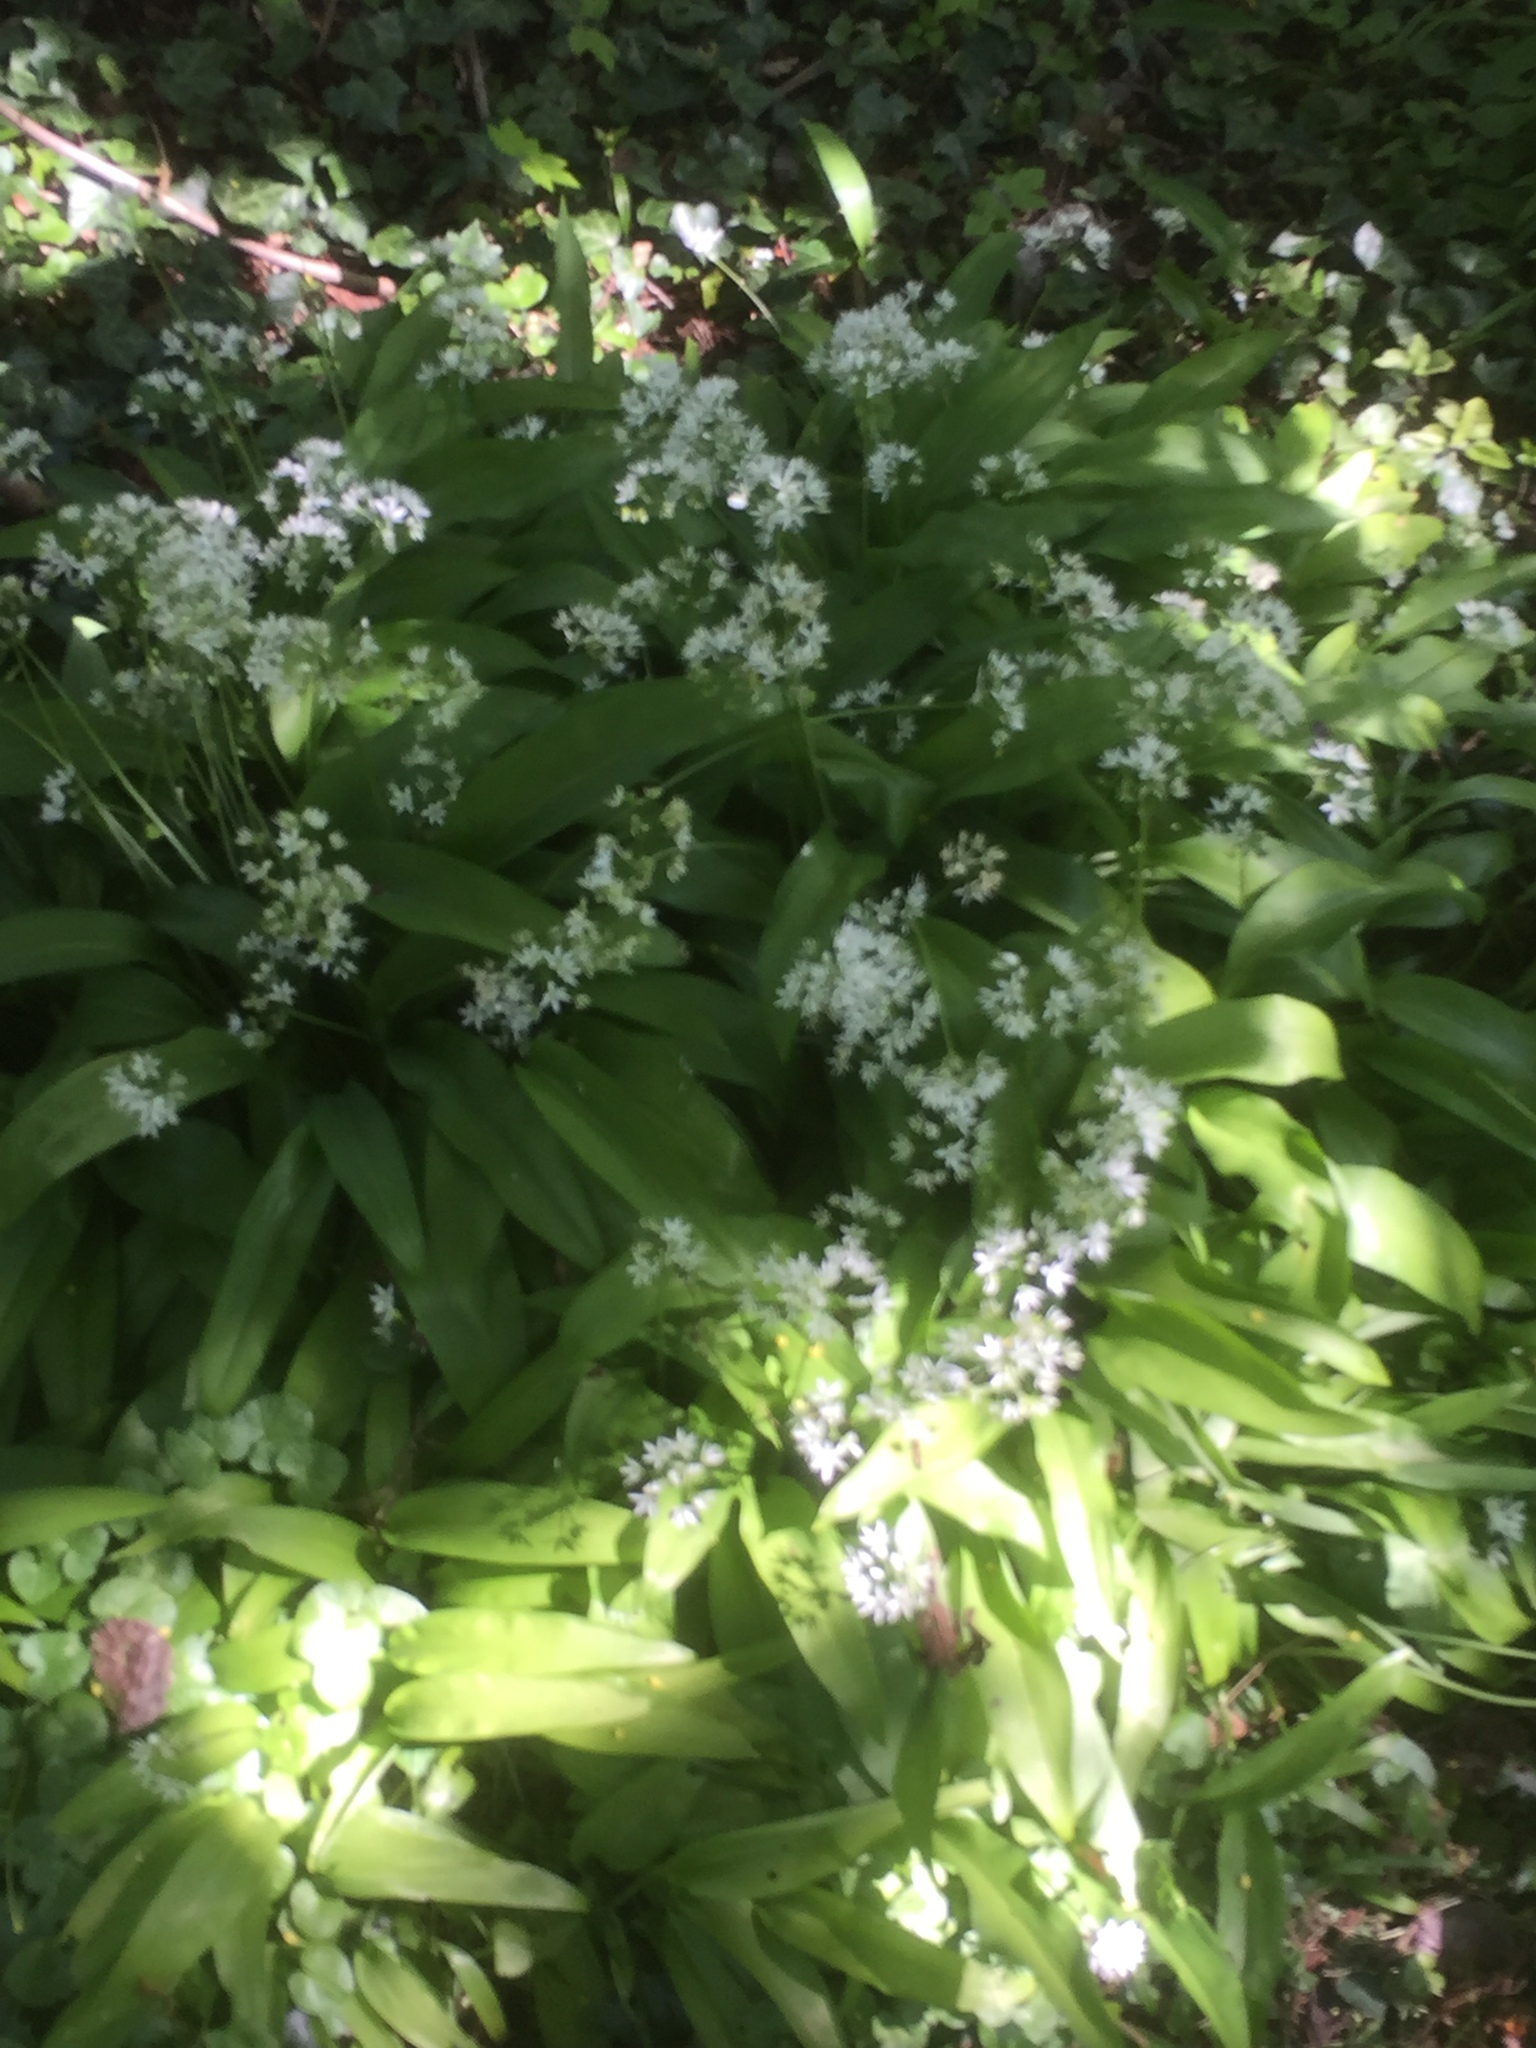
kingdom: Plantae
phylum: Tracheophyta
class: Liliopsida
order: Asparagales
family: Amaryllidaceae
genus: Allium
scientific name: Allium ursinum
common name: Ramsons
